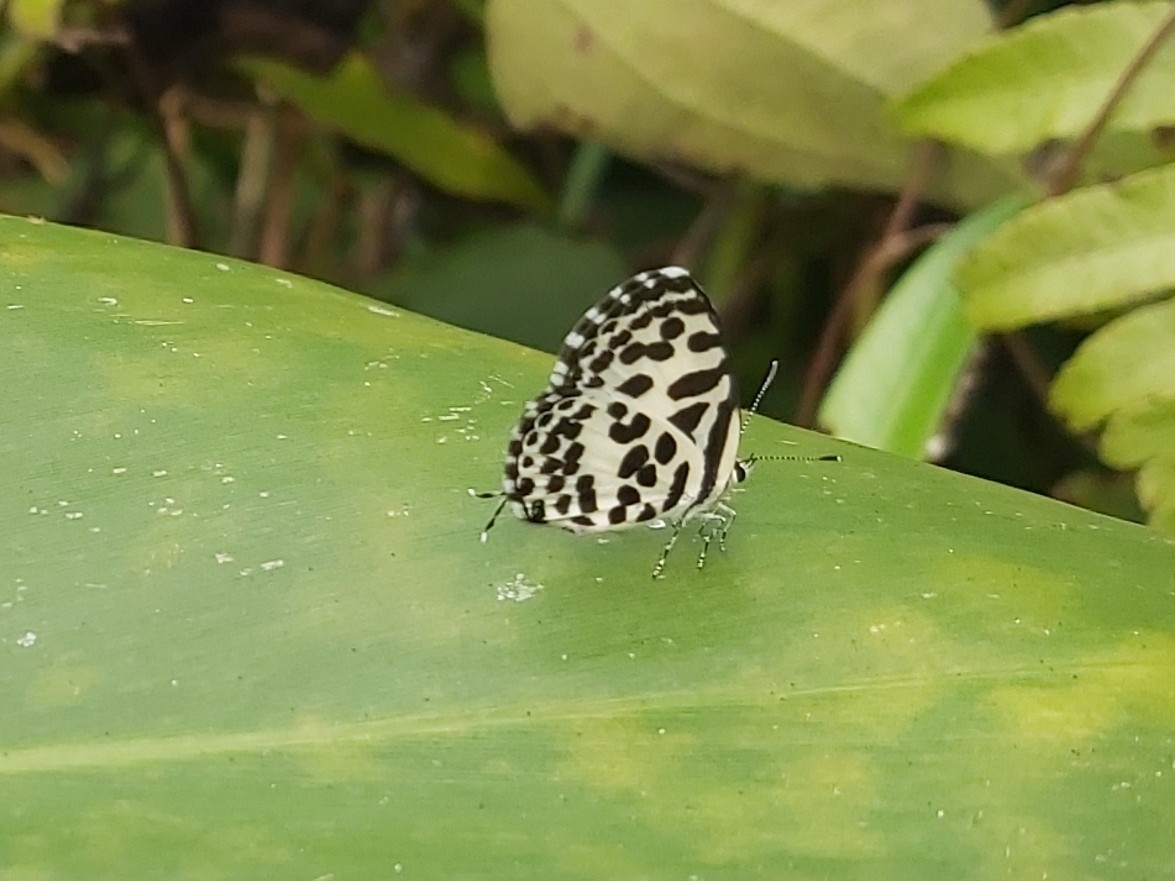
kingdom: Animalia
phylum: Arthropoda
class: Insecta
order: Lepidoptera
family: Lycaenidae
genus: Castalius
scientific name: Castalius rosimon
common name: Common pierrot
